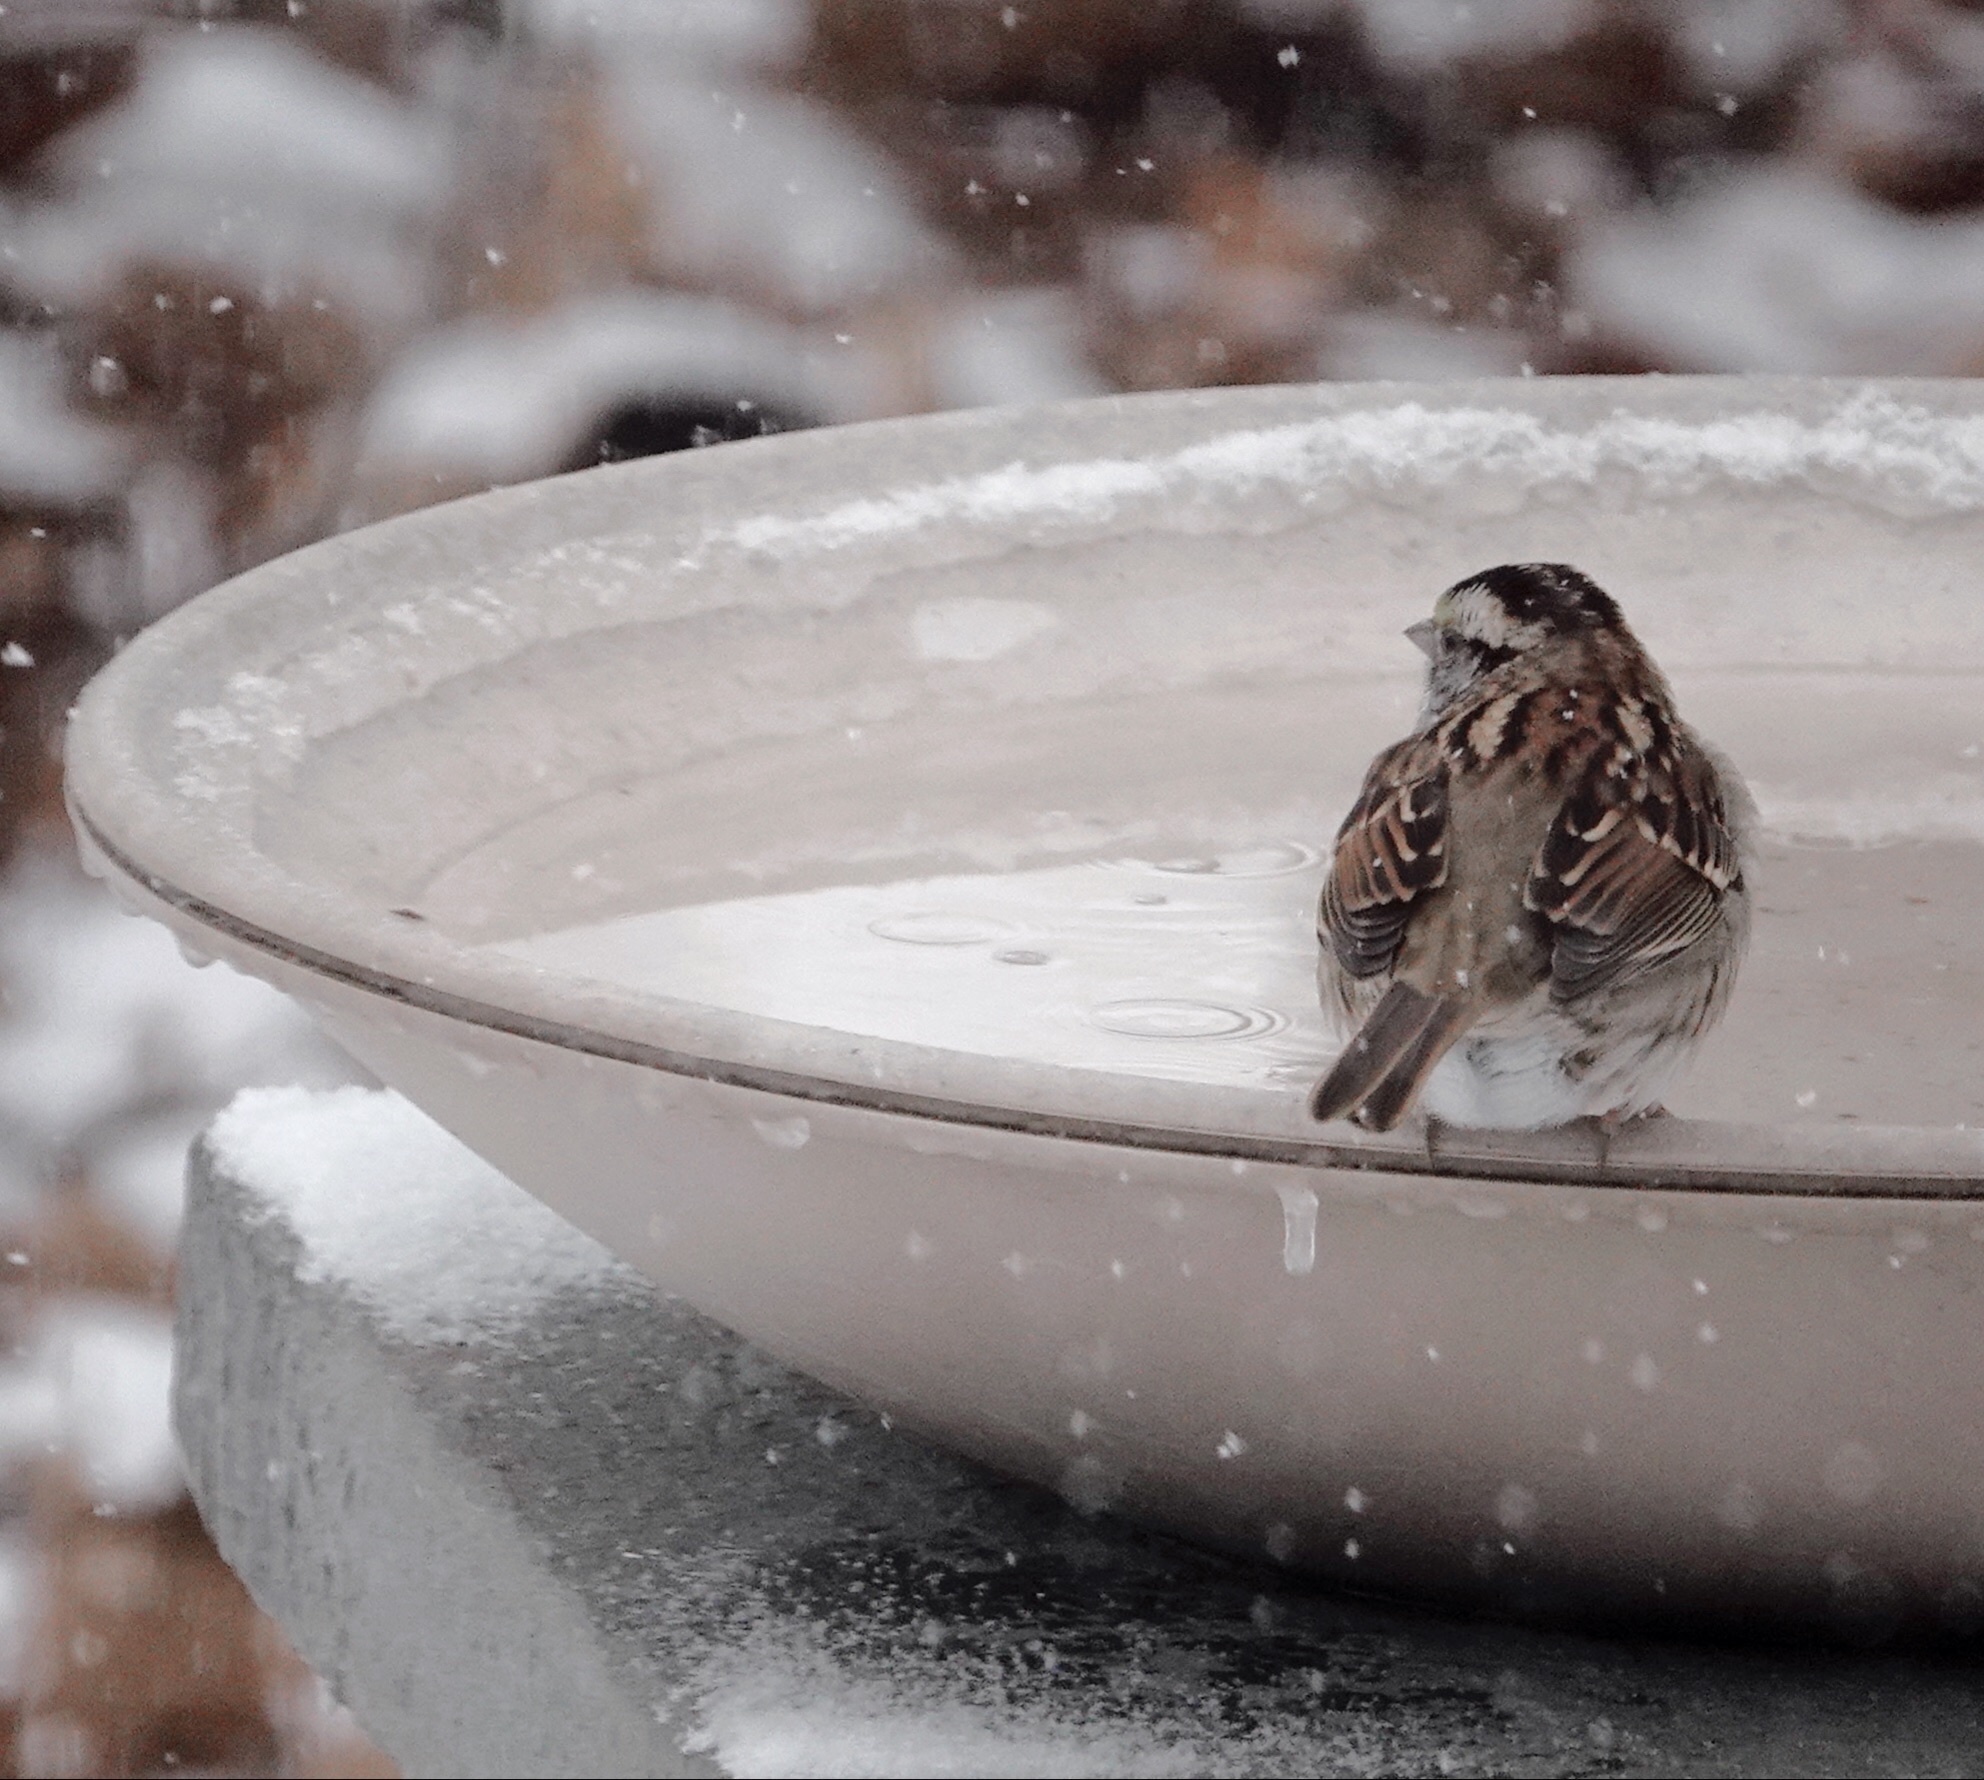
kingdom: Animalia
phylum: Chordata
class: Aves
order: Passeriformes
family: Passerellidae
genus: Zonotrichia
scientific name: Zonotrichia albicollis
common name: White-throated sparrow
